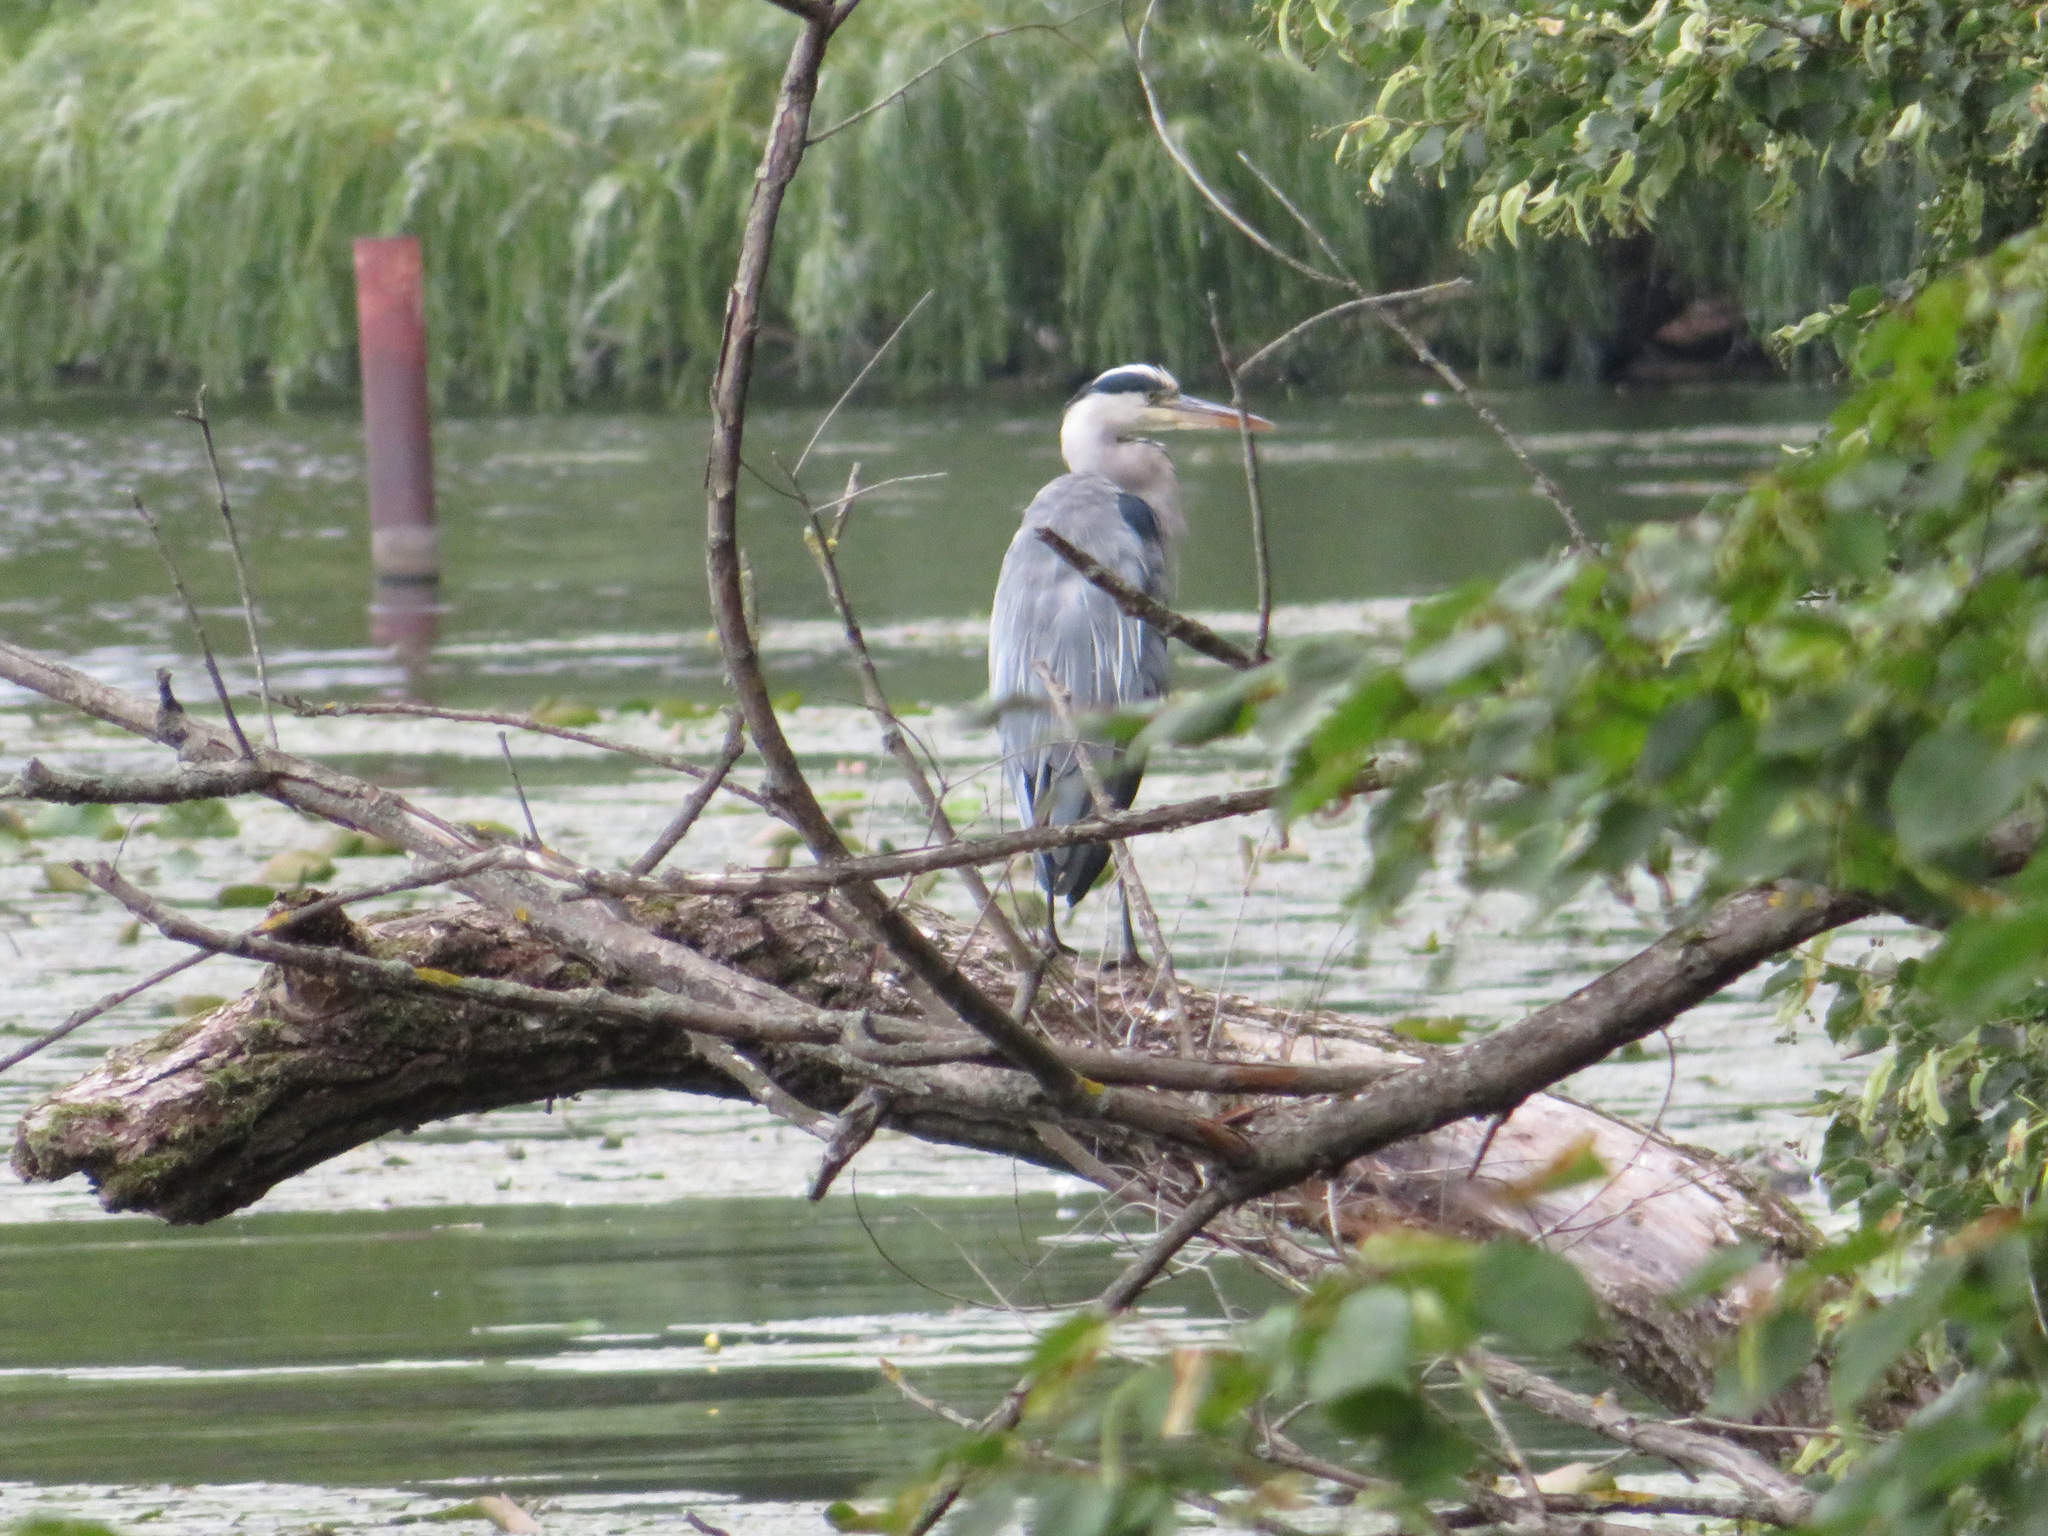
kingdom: Animalia
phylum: Chordata
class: Aves
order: Pelecaniformes
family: Ardeidae
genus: Ardea
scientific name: Ardea cinerea
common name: Grey heron
